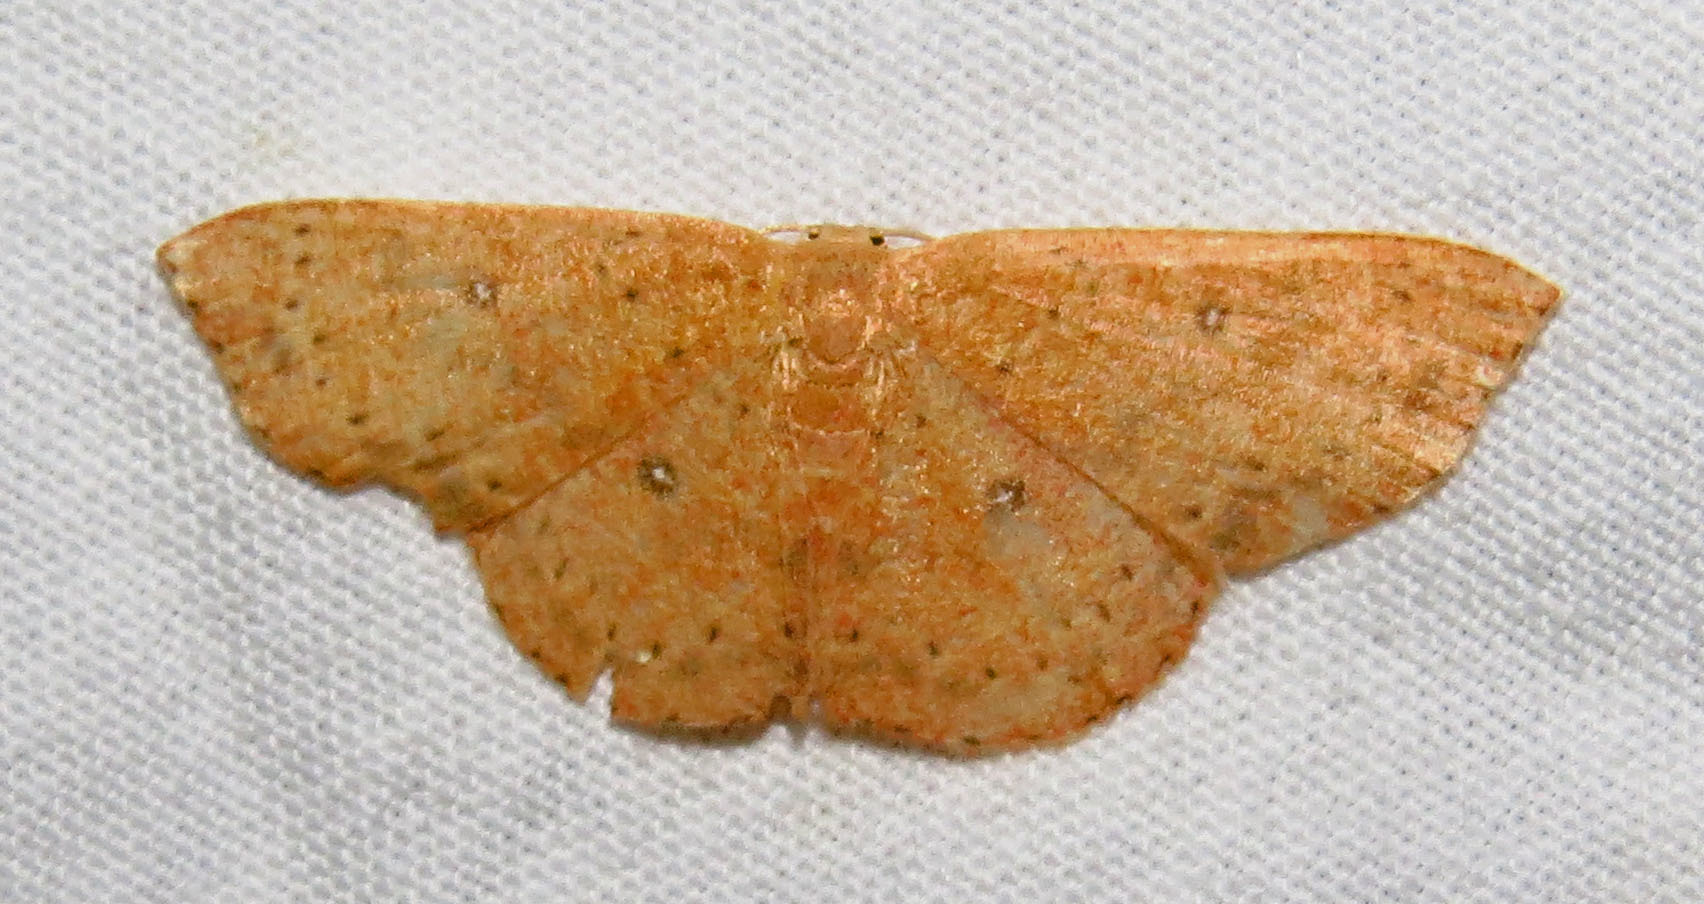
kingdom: Animalia
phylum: Arthropoda
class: Insecta
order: Lepidoptera
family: Geometridae
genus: Cyclophora
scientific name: Cyclophora packardi
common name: Packard's wave
